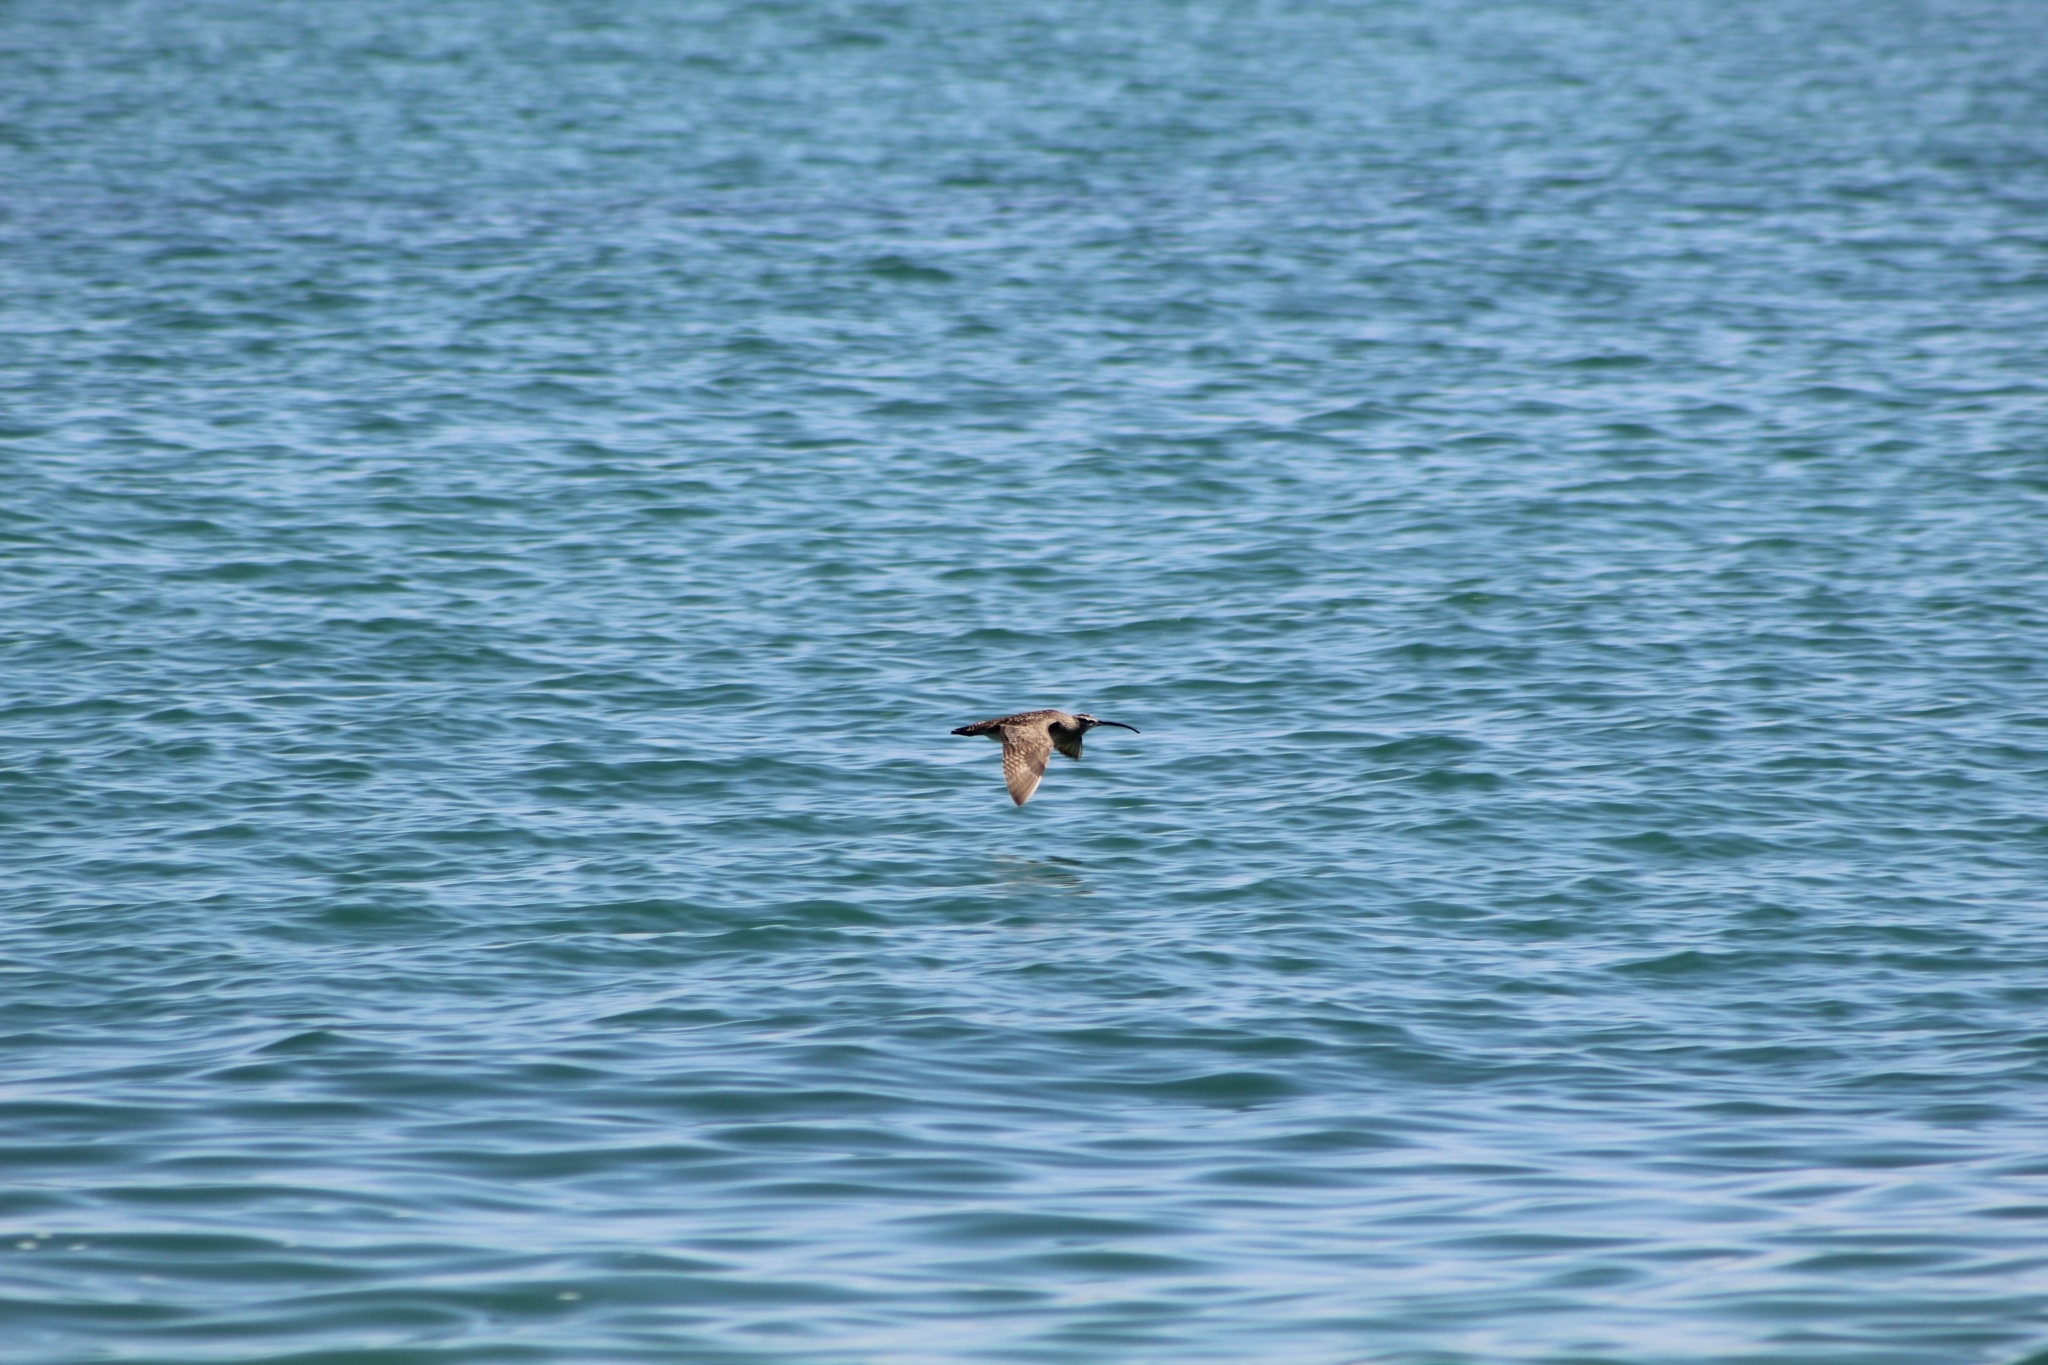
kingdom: Animalia
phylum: Chordata
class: Aves
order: Charadriiformes
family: Scolopacidae
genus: Numenius
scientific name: Numenius hudsonicus
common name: Hudsonian whimbrel
